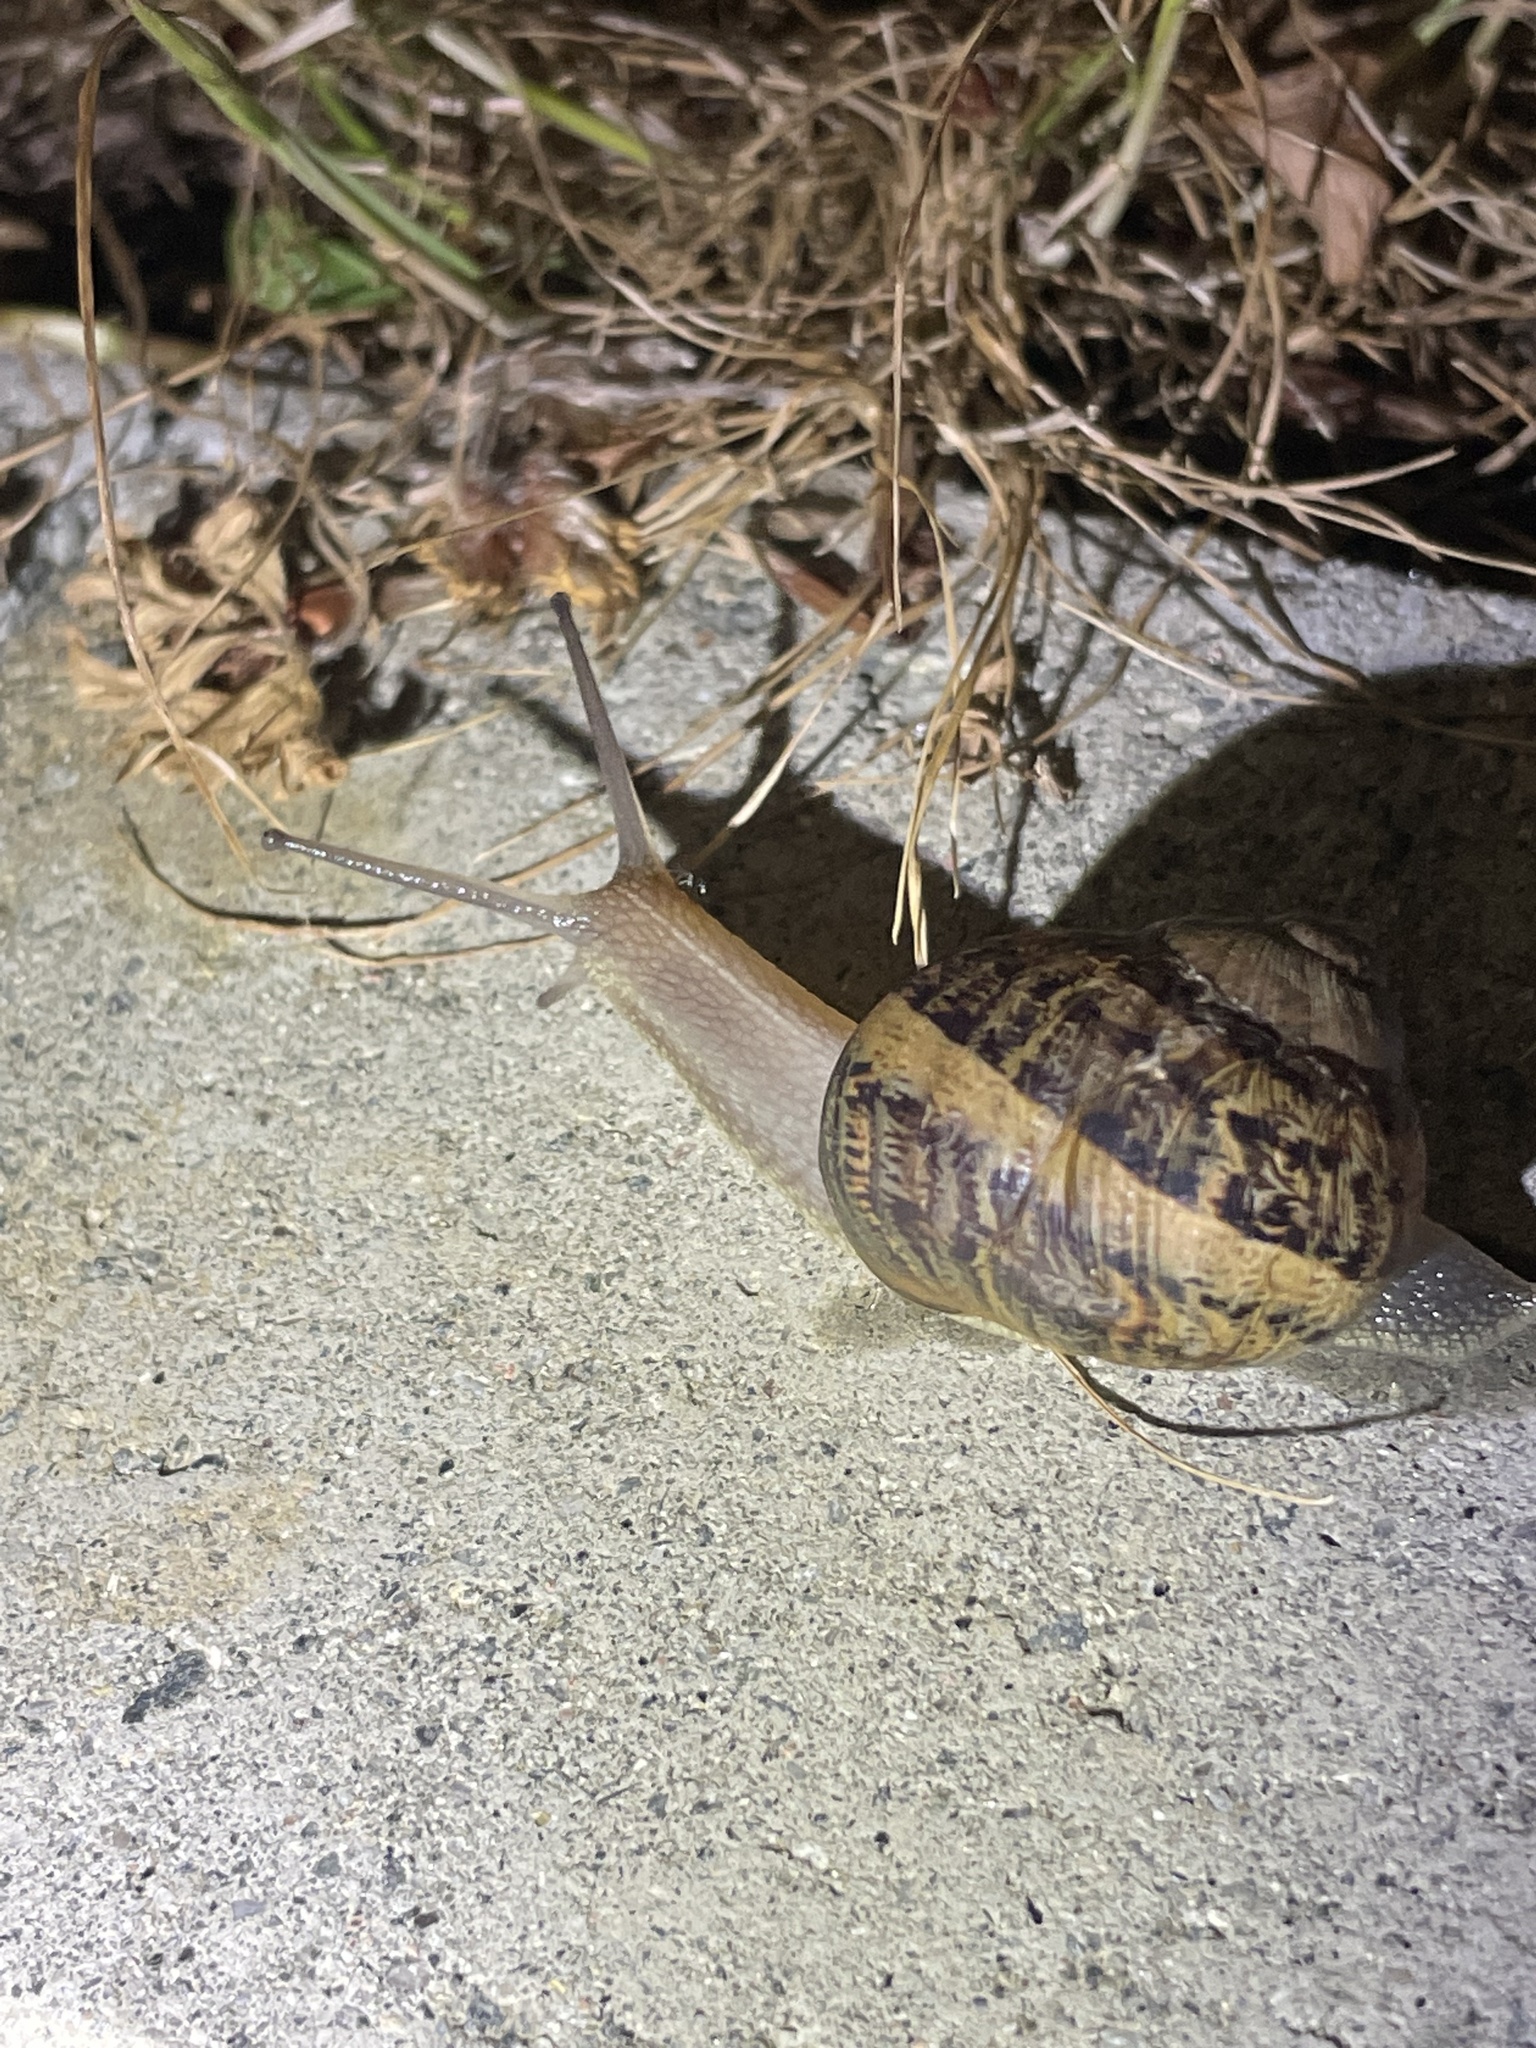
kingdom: Animalia
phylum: Mollusca
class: Gastropoda
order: Stylommatophora
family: Helicidae
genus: Cornu
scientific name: Cornu aspersum
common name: Brown garden snail
